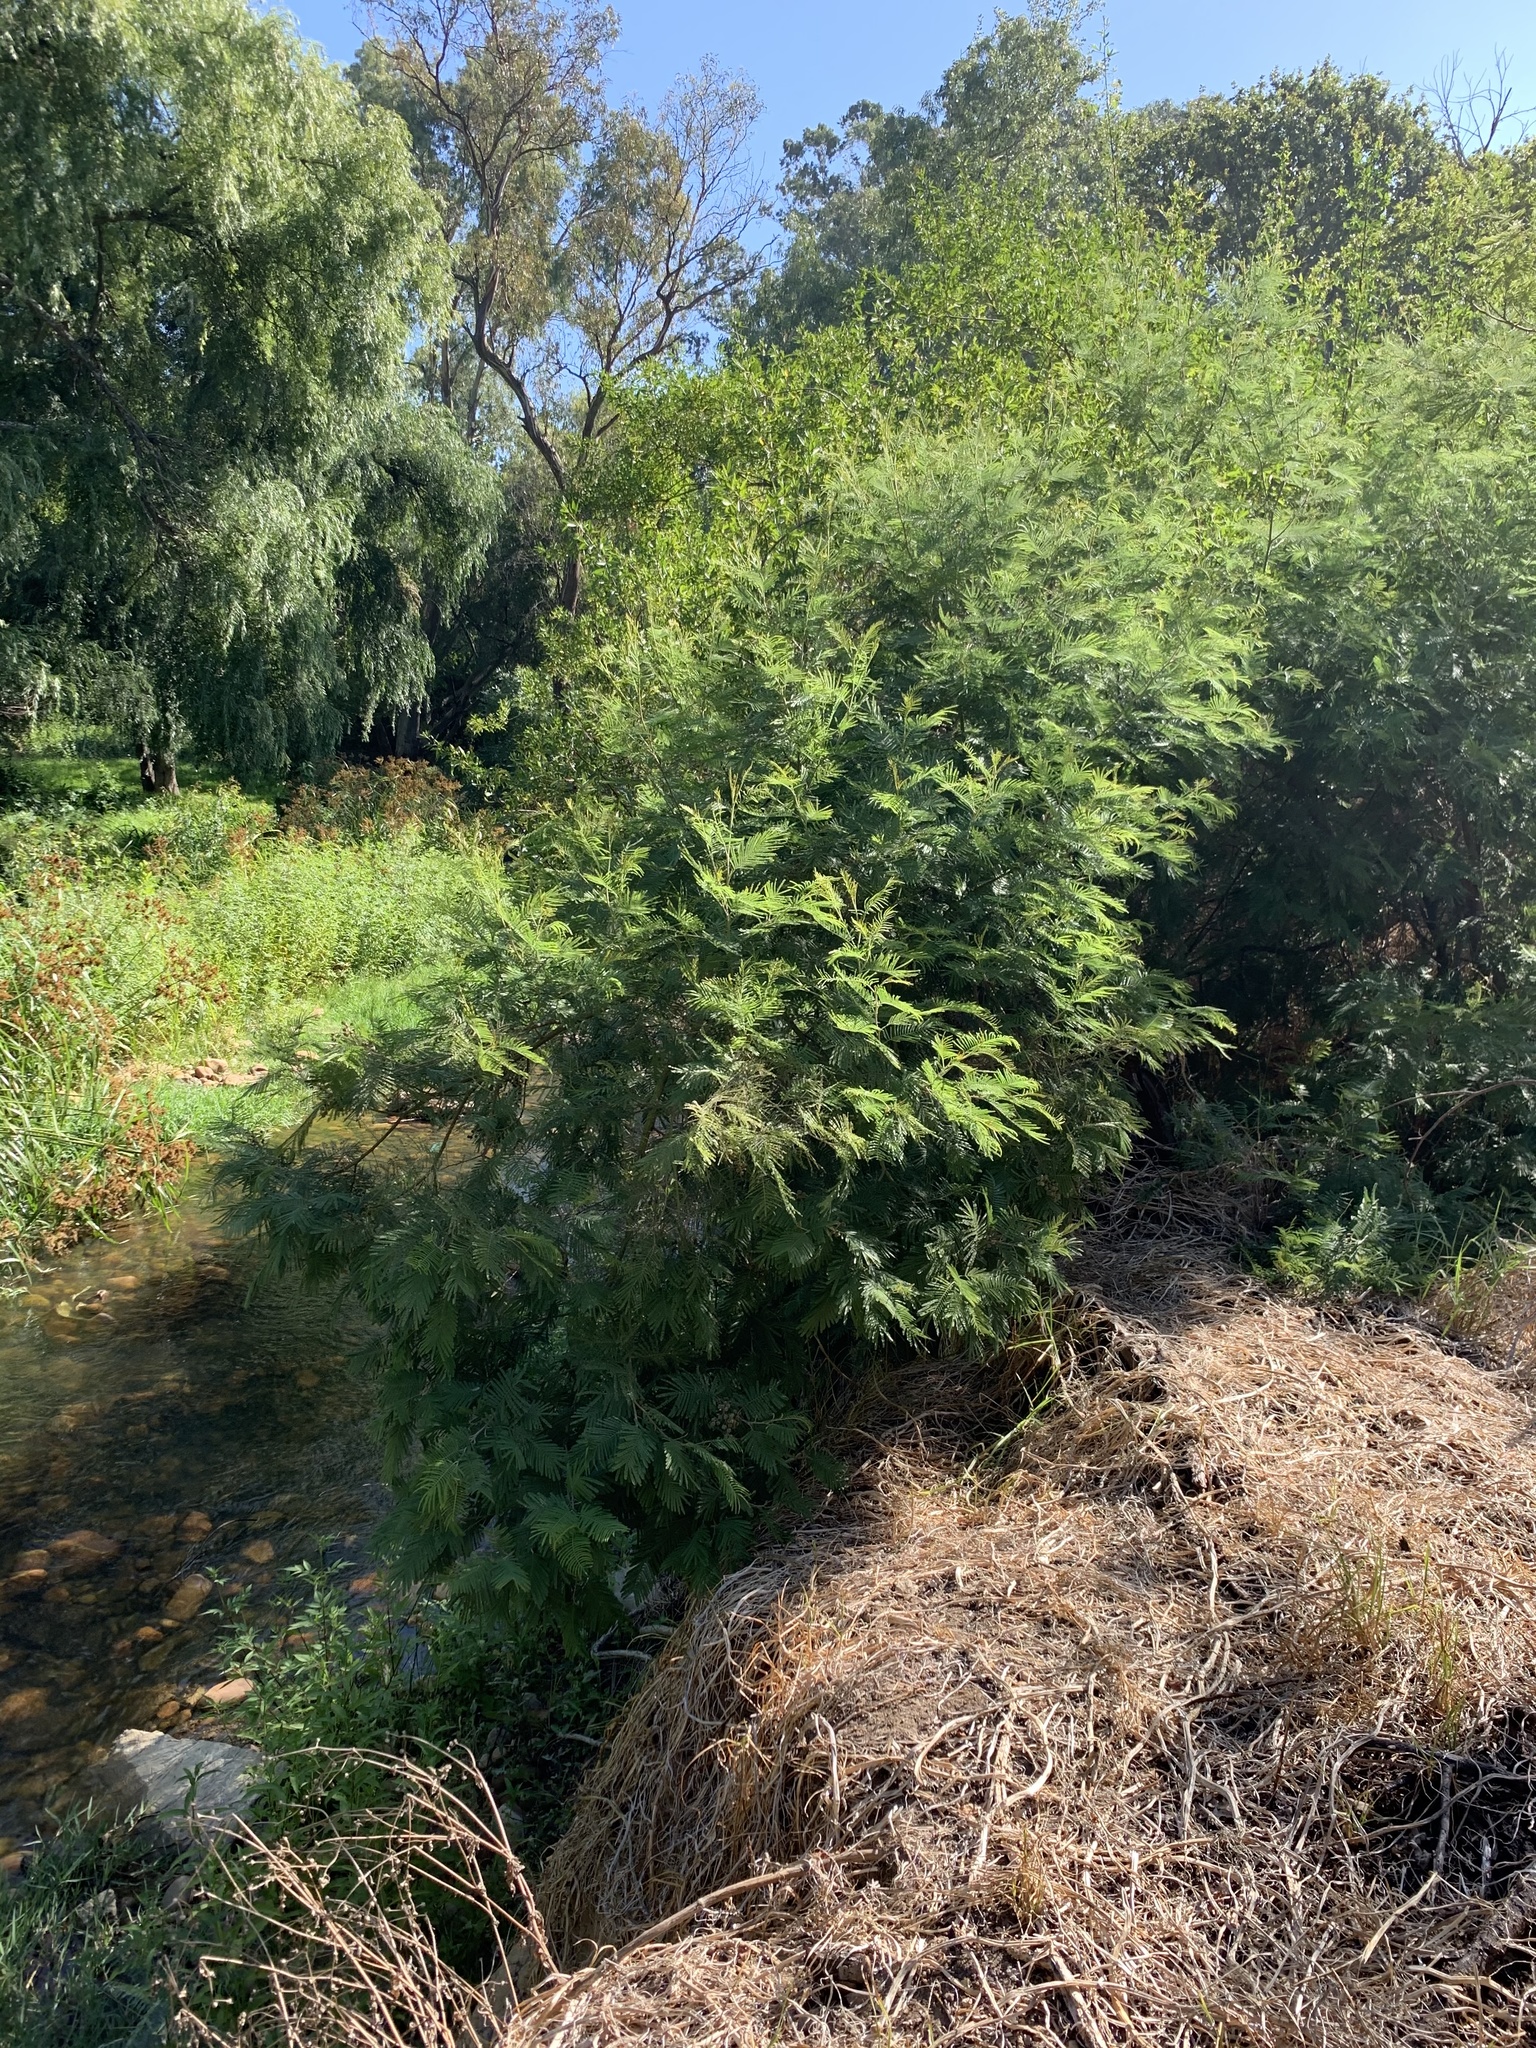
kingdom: Plantae
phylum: Tracheophyta
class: Magnoliopsida
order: Fabales
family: Fabaceae
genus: Acacia
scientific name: Acacia mearnsii
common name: Black wattle
